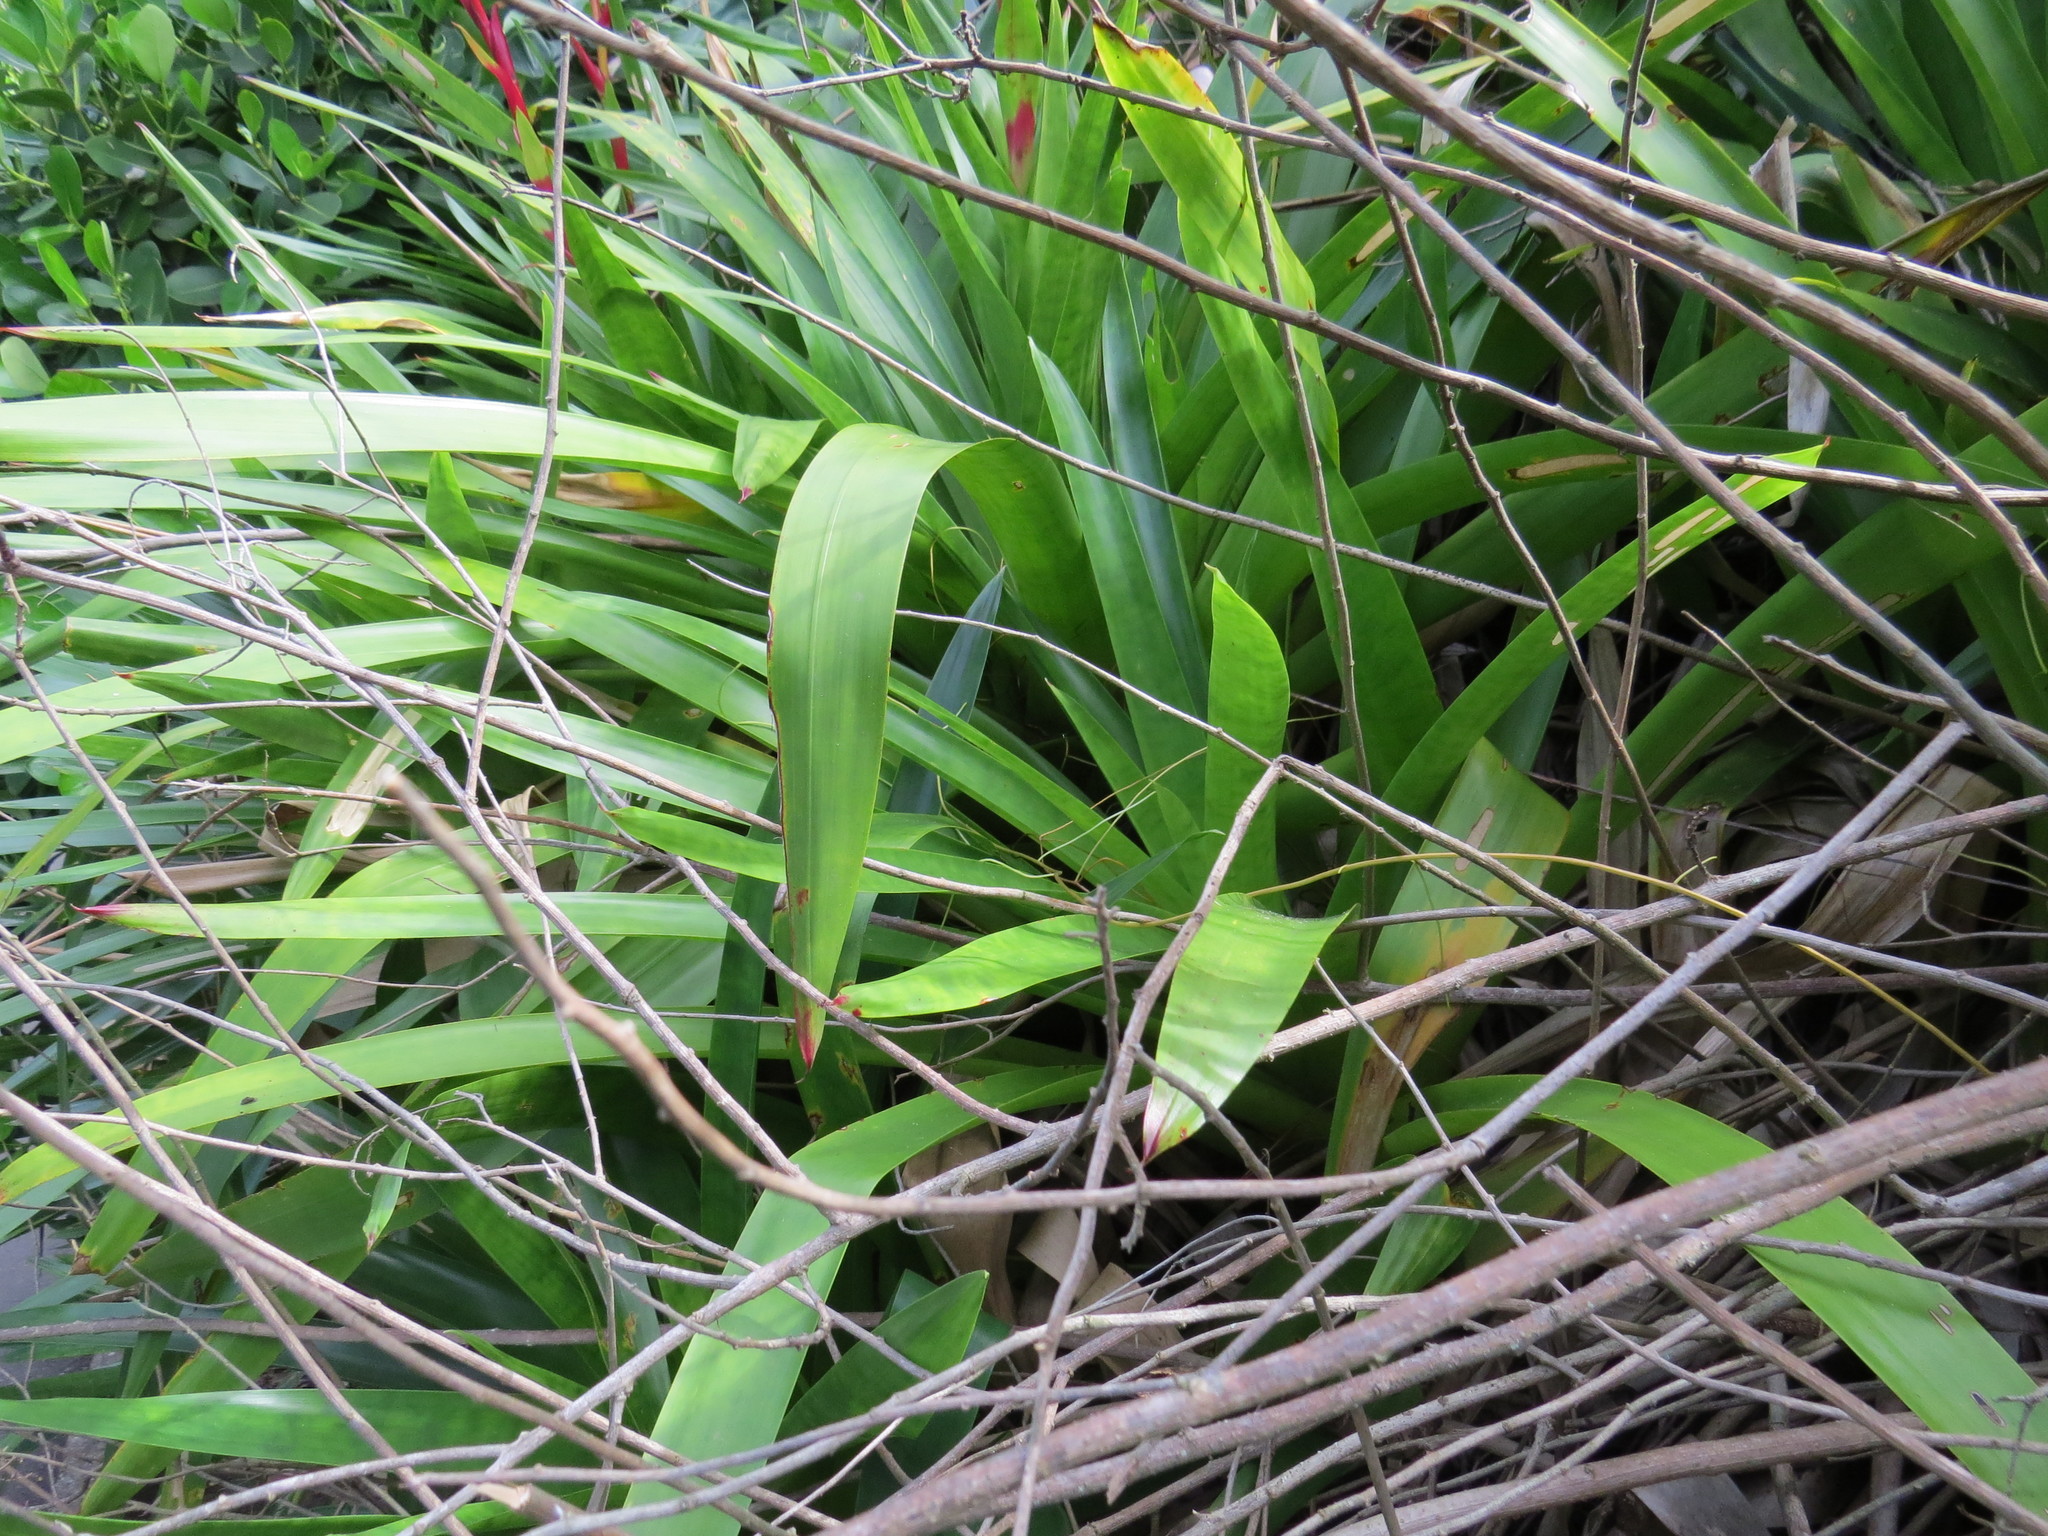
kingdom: Plantae
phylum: Tracheophyta
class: Liliopsida
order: Poales
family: Bromeliaceae
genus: Vriesea
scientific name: Vriesea neoglutinosa
